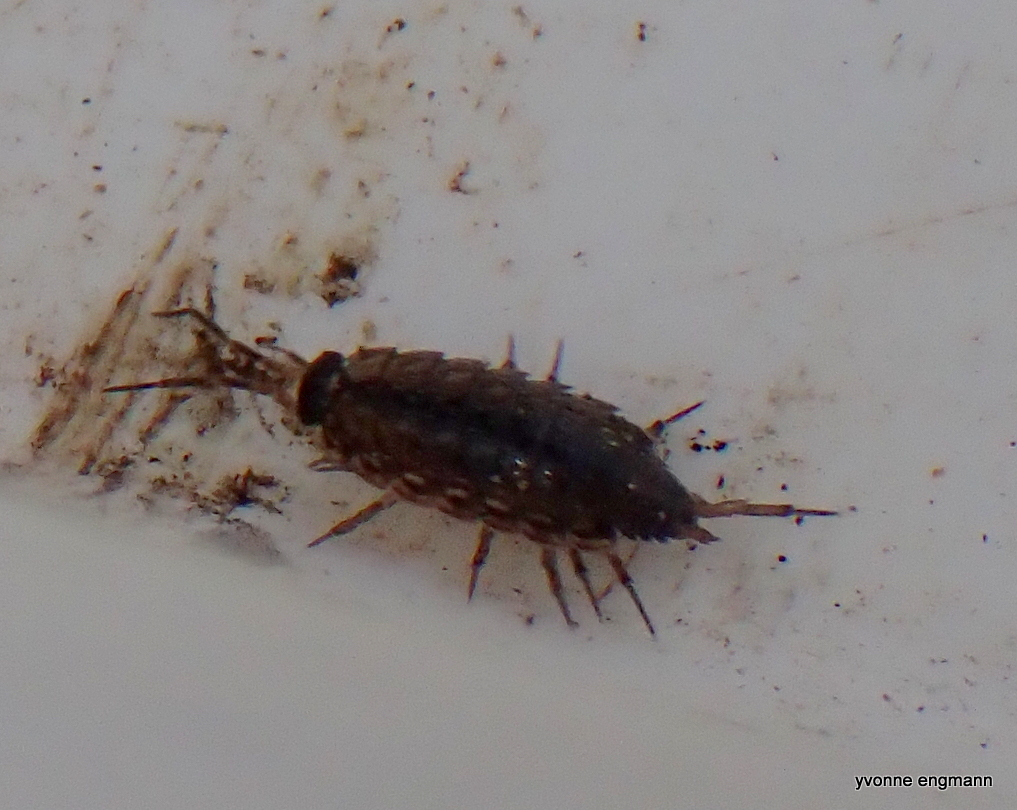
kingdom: Animalia
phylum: Arthropoda
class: Malacostraca
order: Isopoda
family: Philosciidae
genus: Philoscia
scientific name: Philoscia muscorum
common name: Common striped woodlouse
